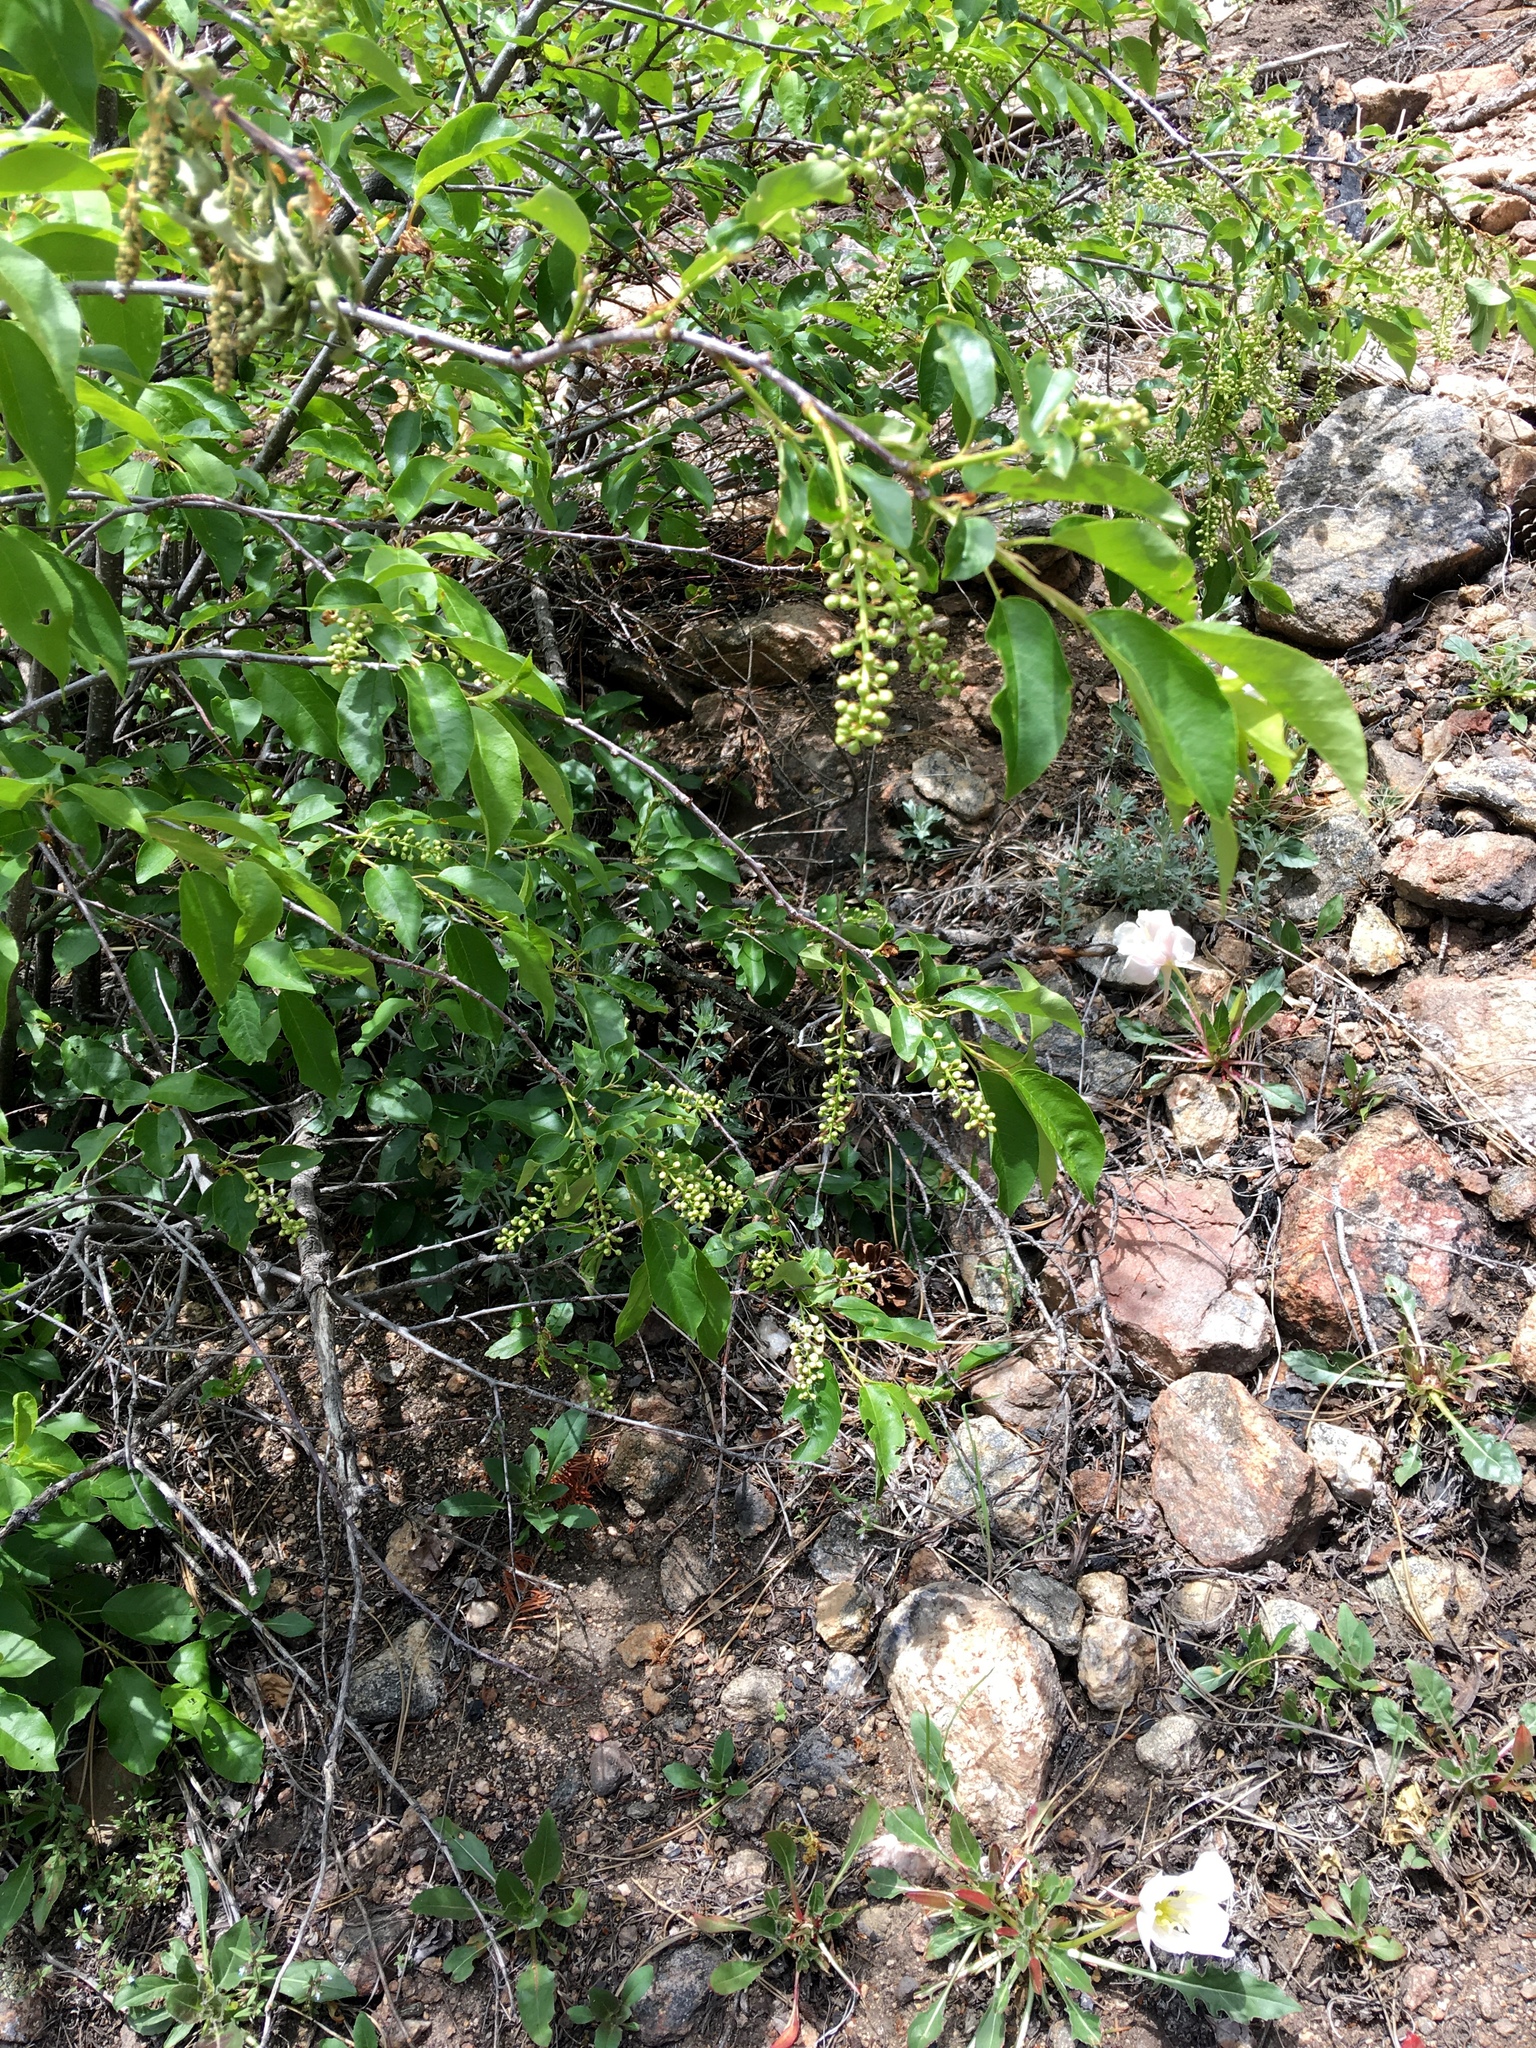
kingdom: Plantae
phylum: Tracheophyta
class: Magnoliopsida
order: Rosales
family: Rosaceae
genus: Prunus
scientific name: Prunus virginiana
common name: Chokecherry
